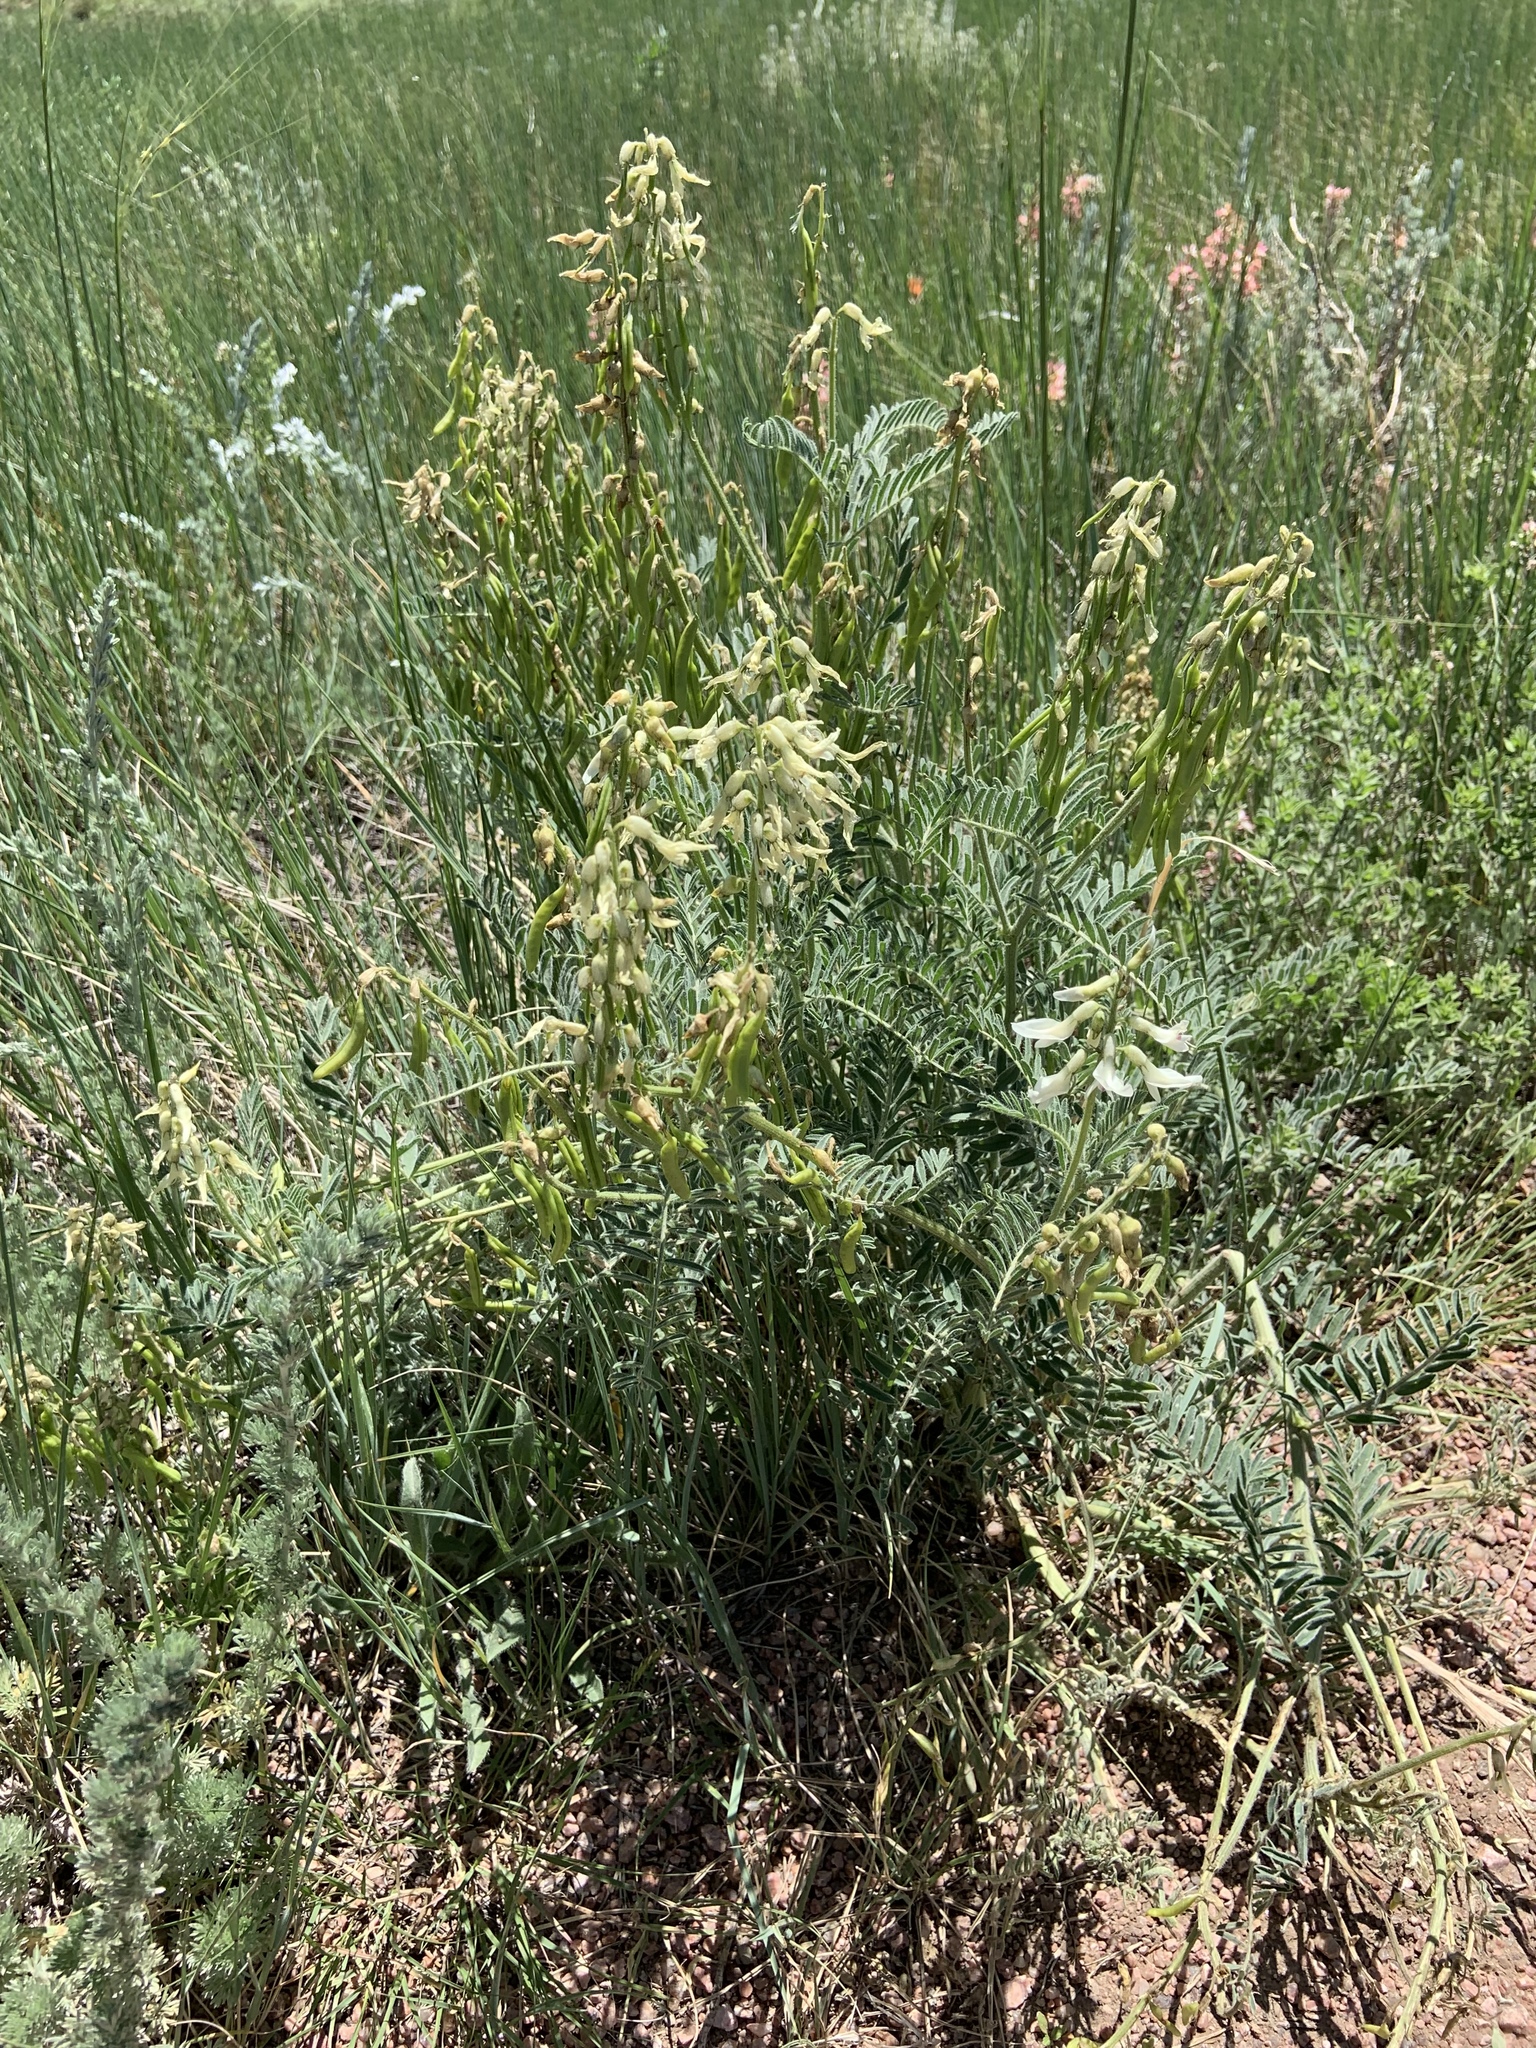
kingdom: Plantae
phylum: Tracheophyta
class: Magnoliopsida
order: Fabales
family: Fabaceae
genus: Astragalus
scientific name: Astragalus drummondii
